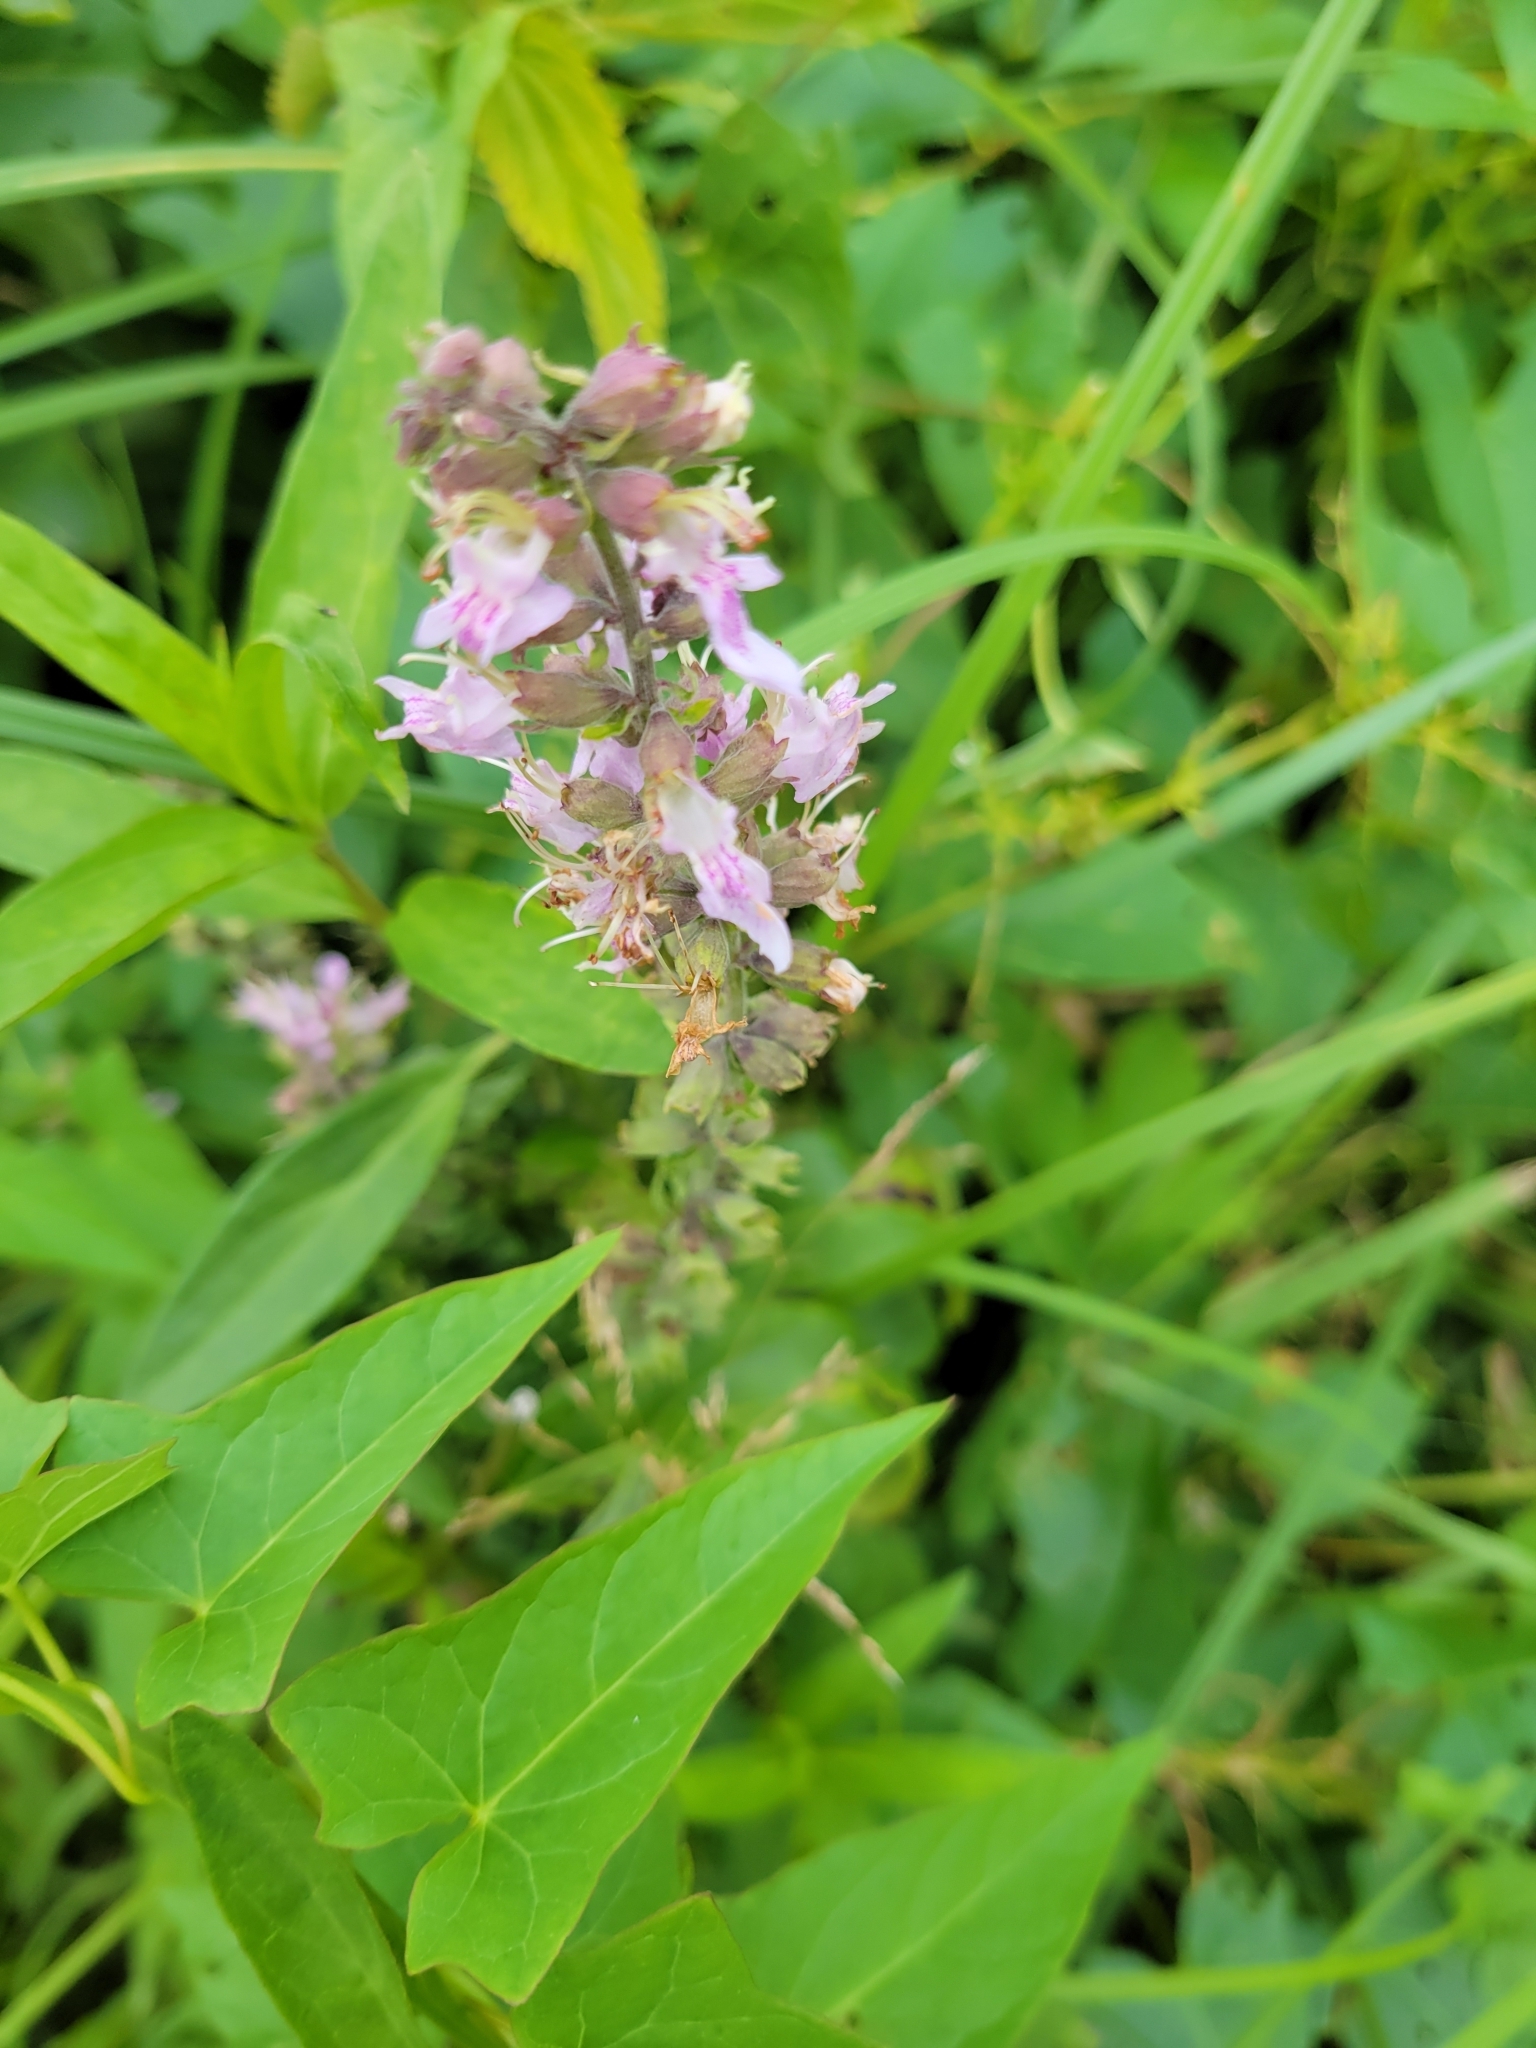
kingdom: Plantae
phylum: Tracheophyta
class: Magnoliopsida
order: Lamiales
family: Lamiaceae
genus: Teucrium
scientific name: Teucrium canadense
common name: American germander
